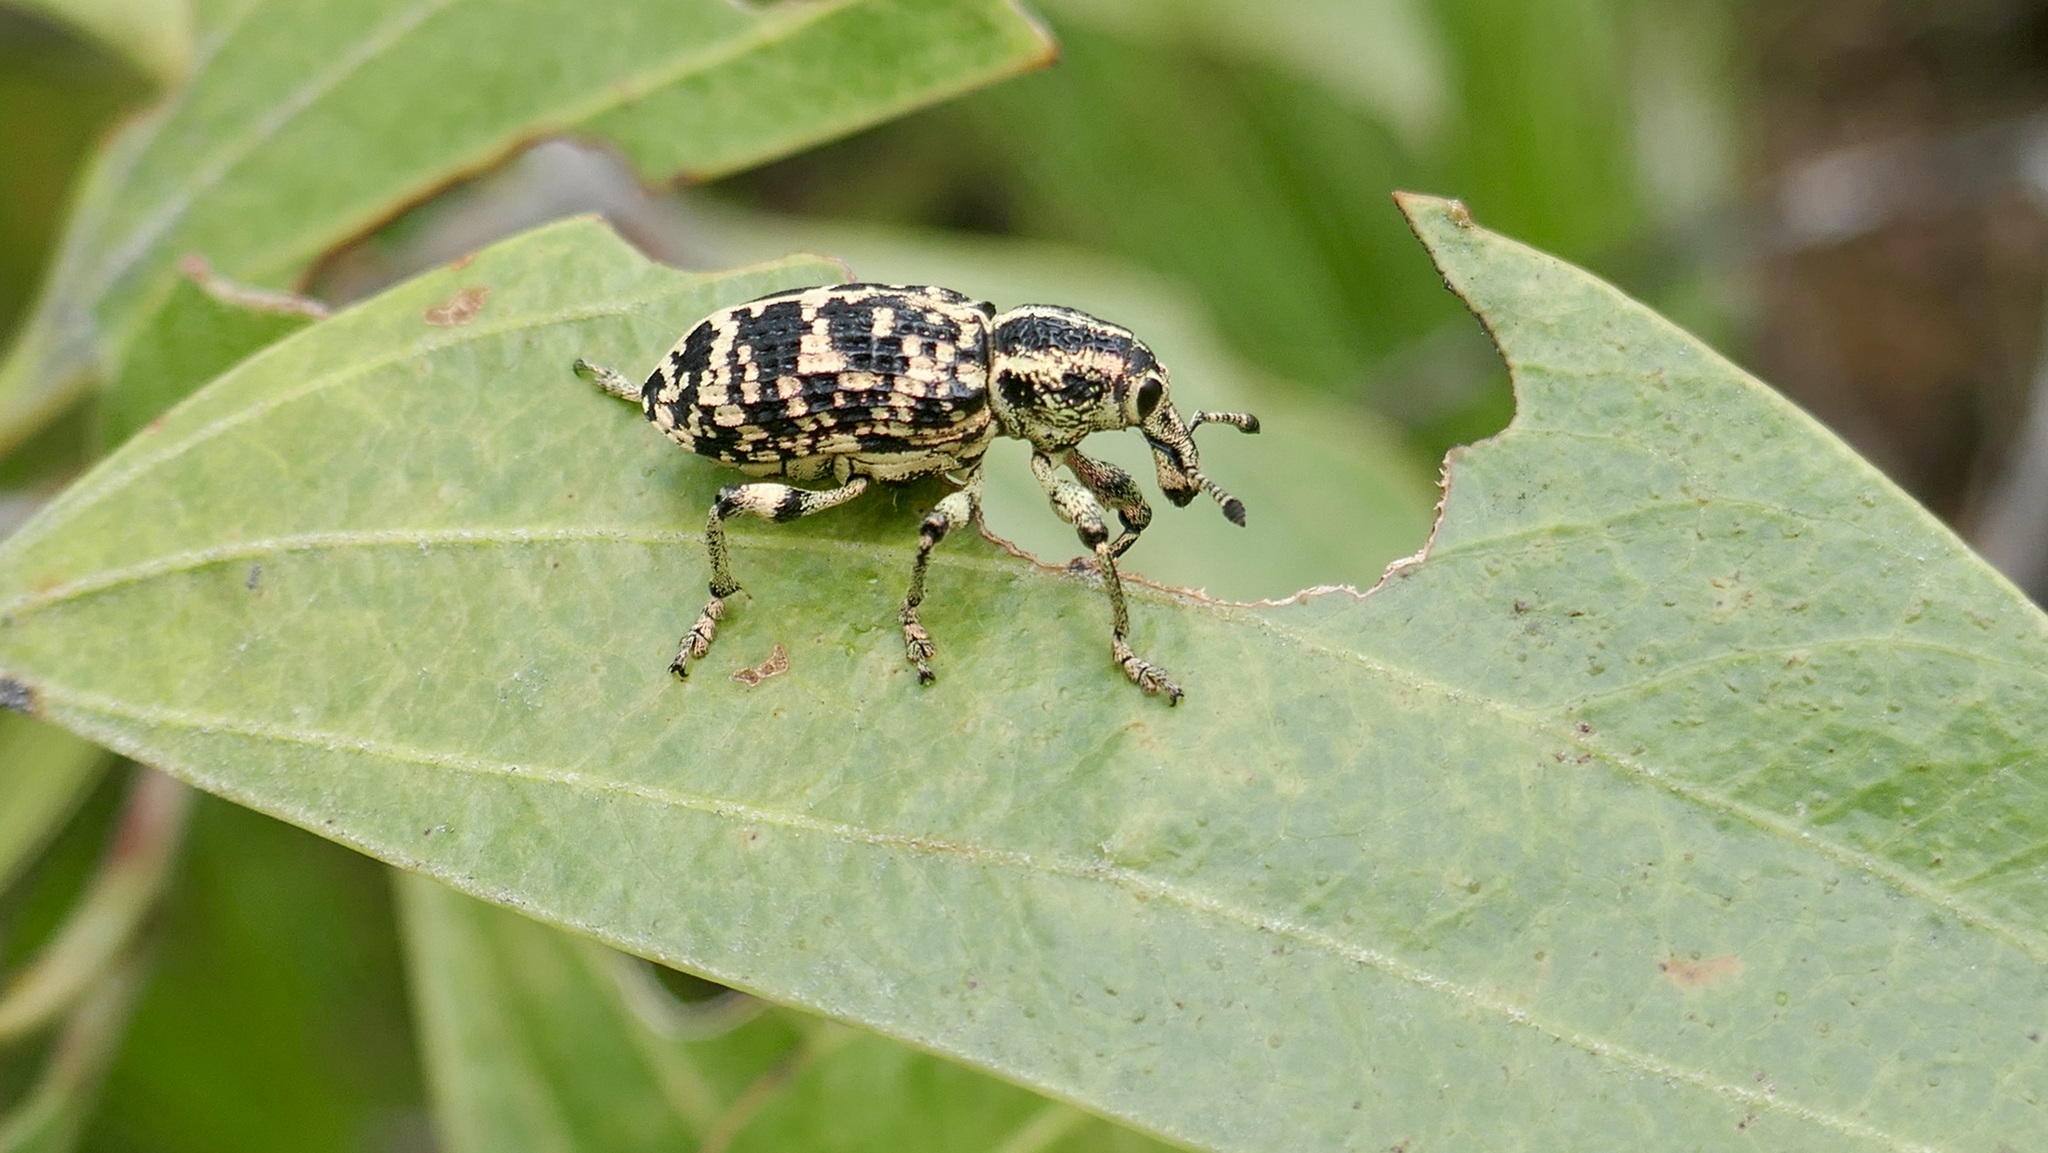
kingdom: Animalia
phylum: Arthropoda
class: Insecta
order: Coleoptera
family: Curculionidae
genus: Chrysolopus
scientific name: Chrysolopus spectabilis
